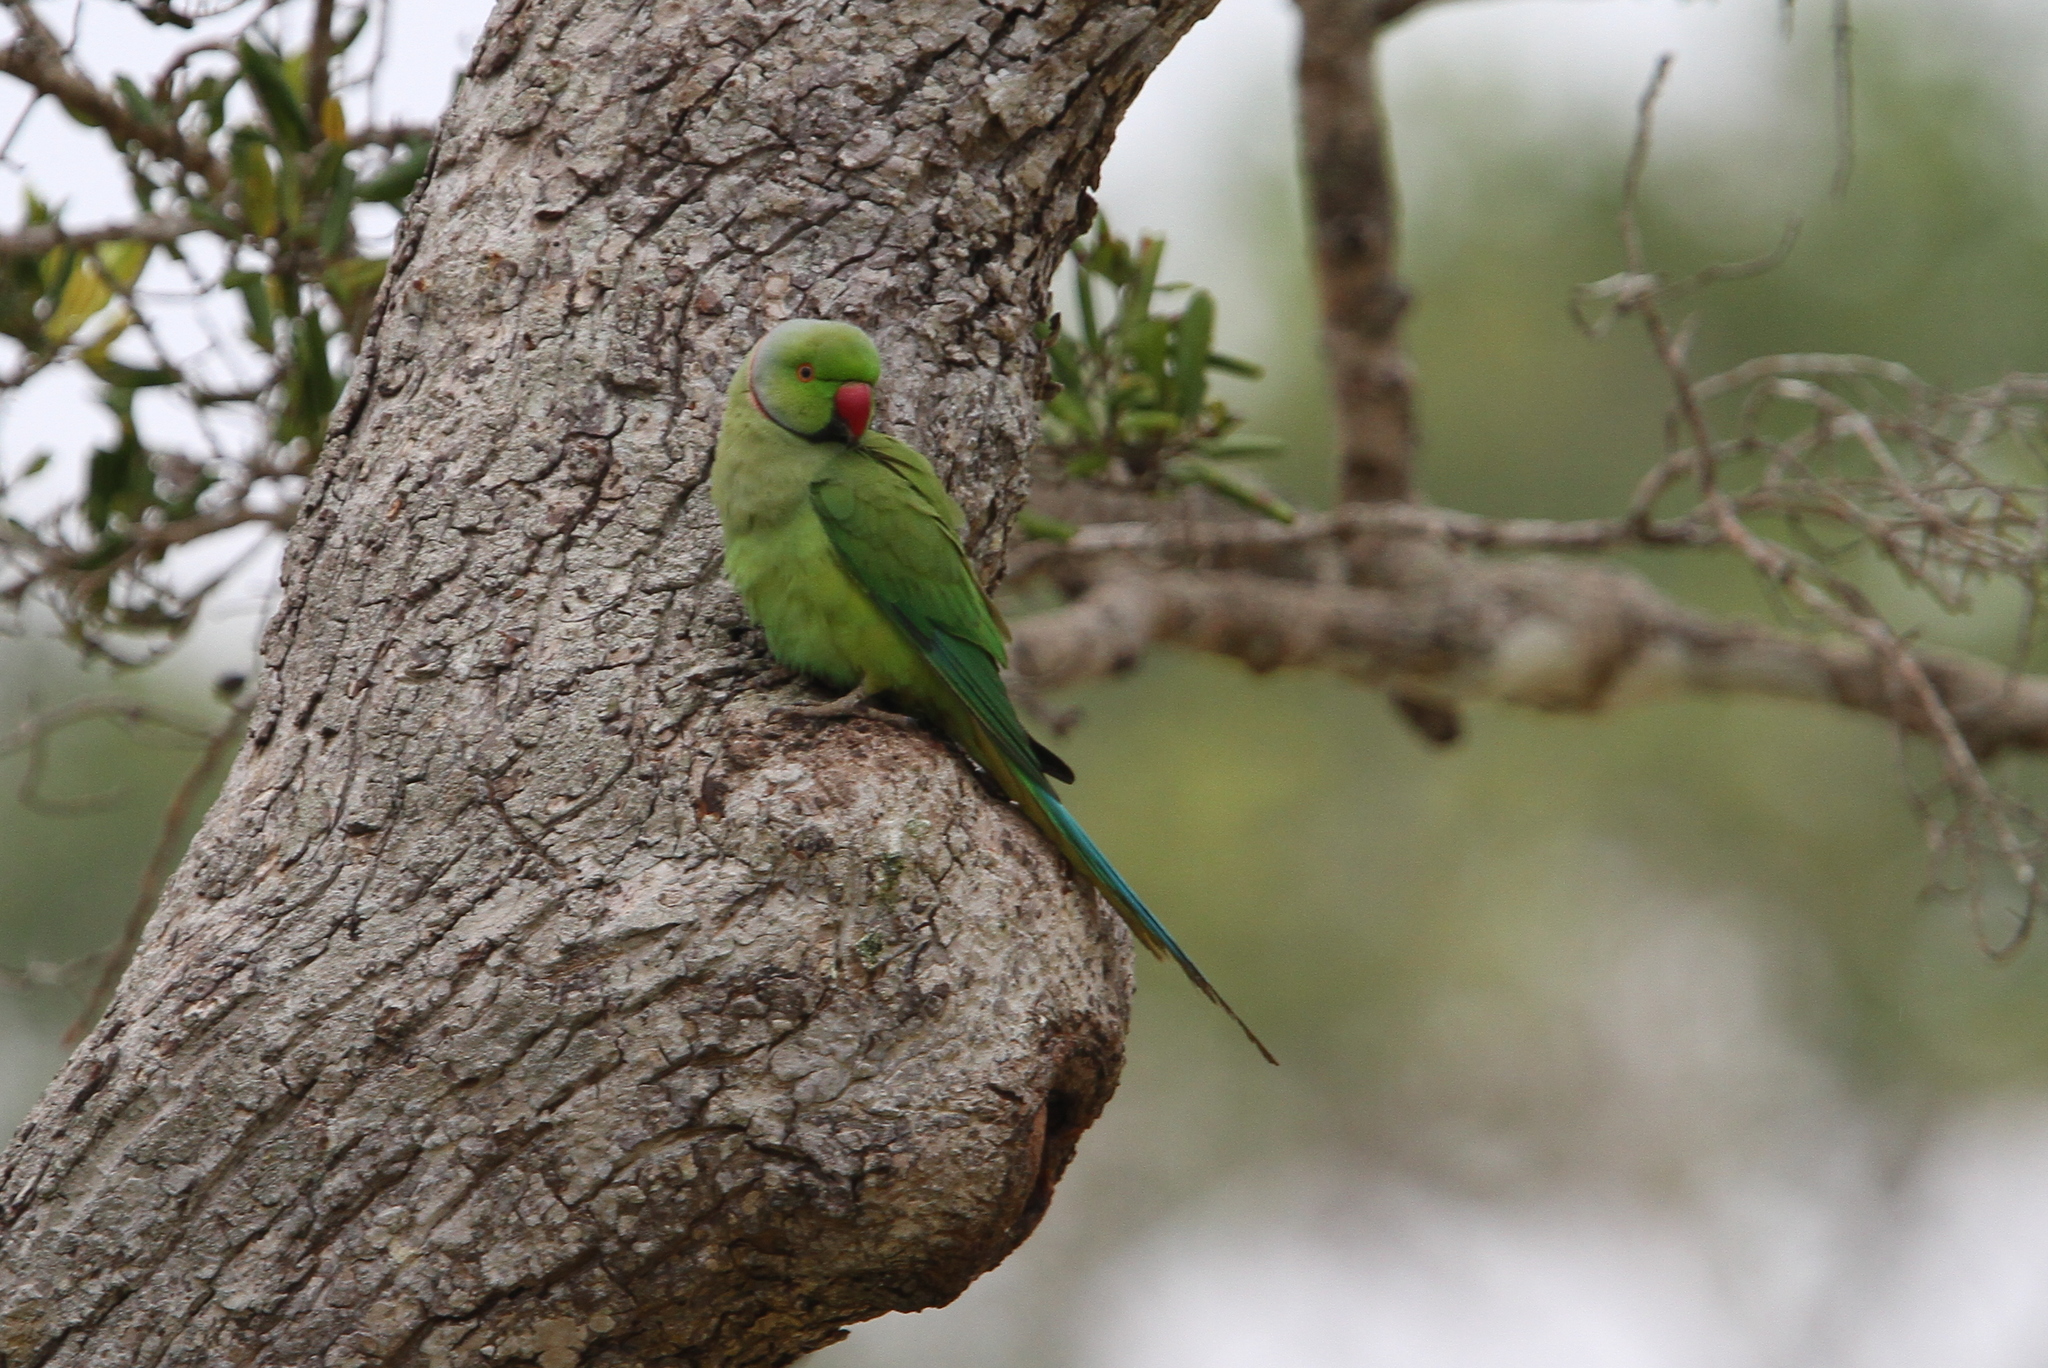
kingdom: Animalia
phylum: Chordata
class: Aves
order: Psittaciformes
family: Psittacidae
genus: Psittacula
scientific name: Psittacula krameri
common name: Rose-ringed parakeet
